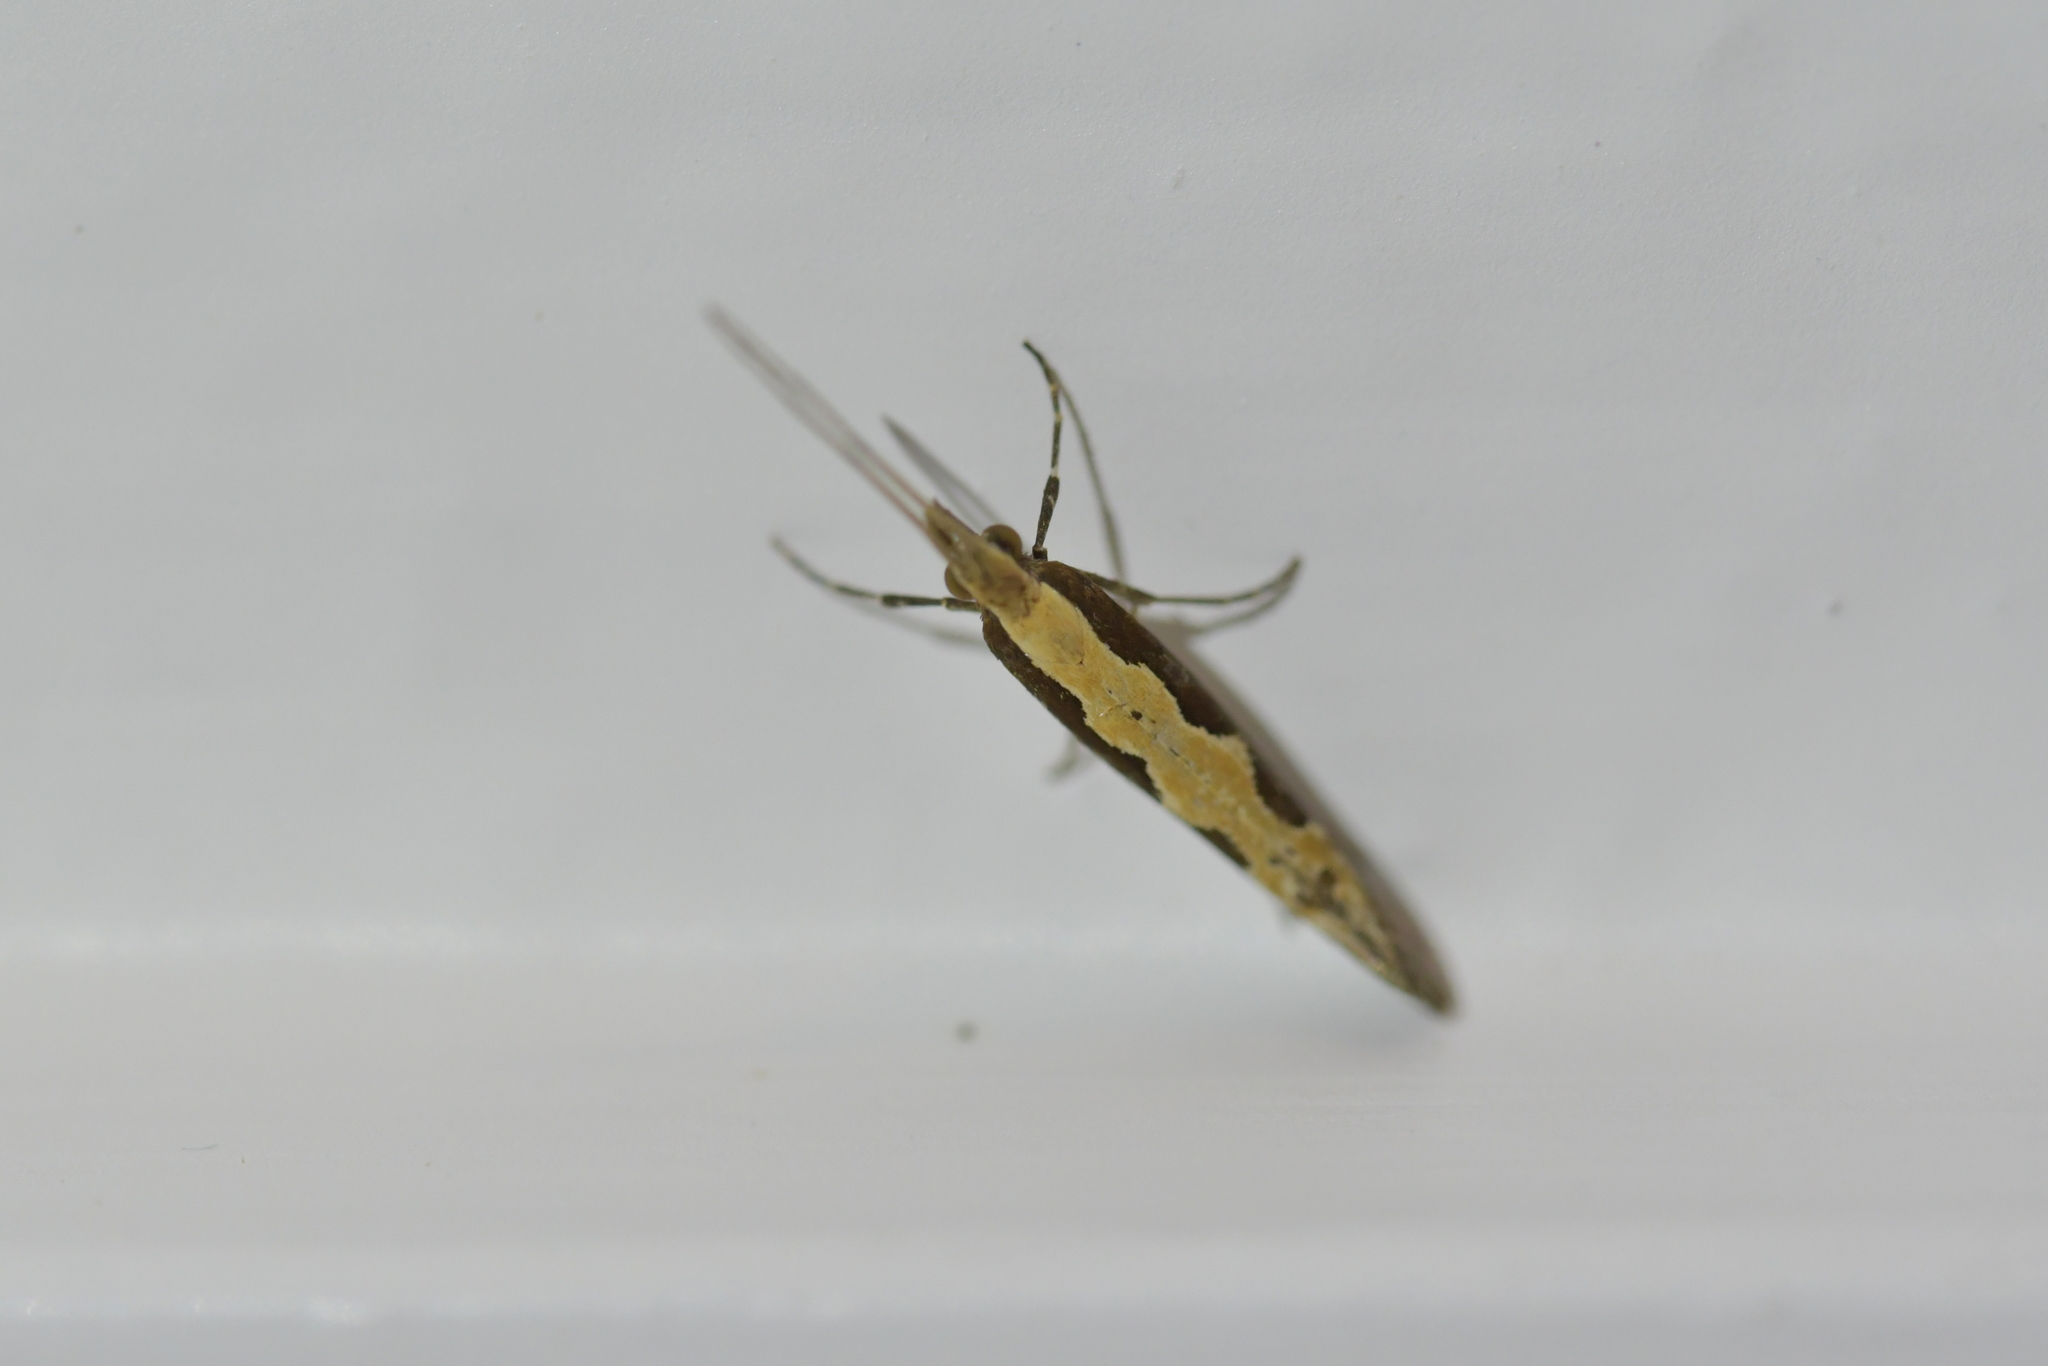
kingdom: Animalia
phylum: Arthropoda
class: Insecta
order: Lepidoptera
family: Plutellidae
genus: Plutella
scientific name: Plutella xylostella
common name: Diamond-back moth
